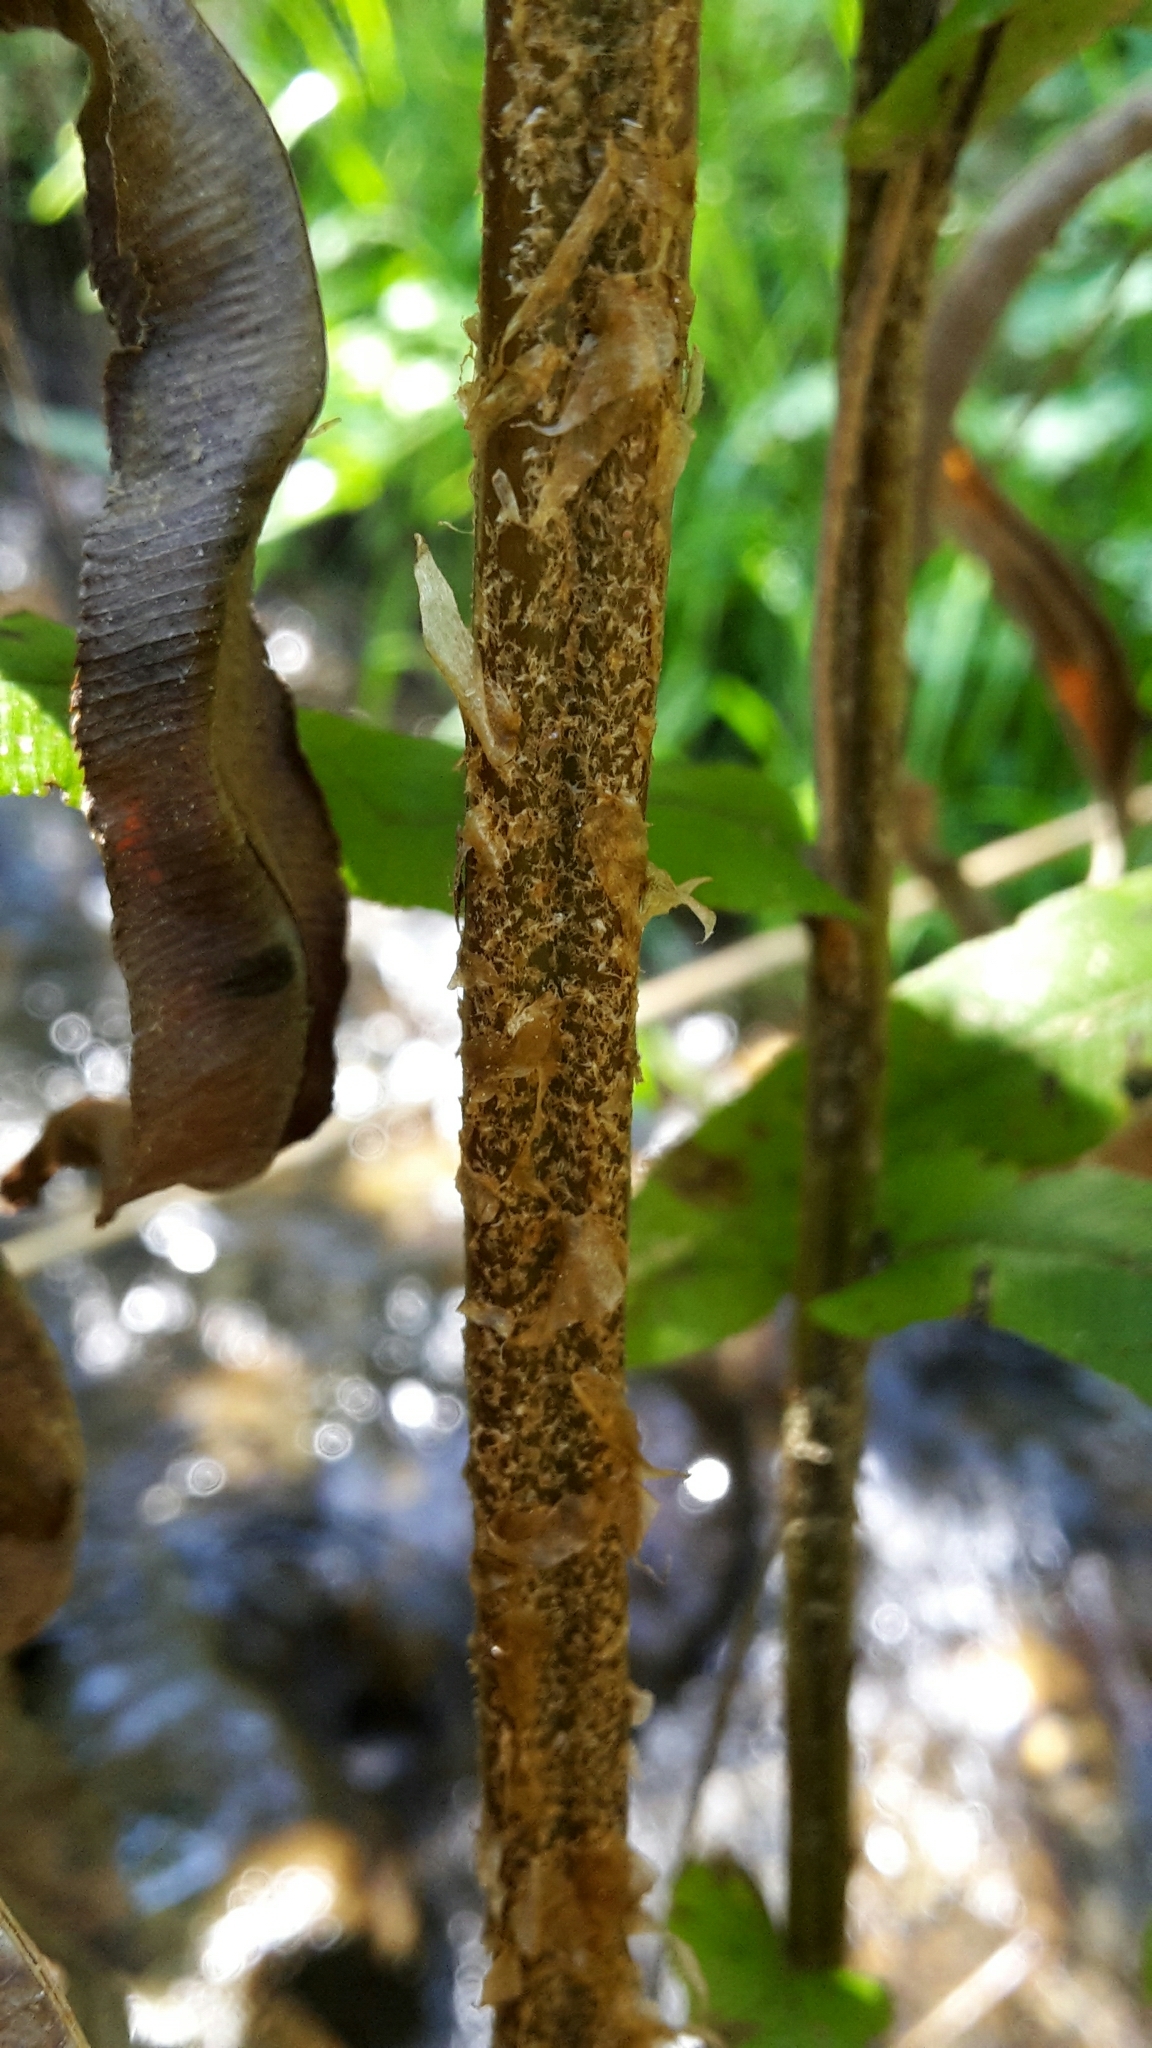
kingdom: Plantae
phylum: Tracheophyta
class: Polypodiopsida
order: Polypodiales
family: Blechnaceae
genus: Parablechnum
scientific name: Parablechnum minus
